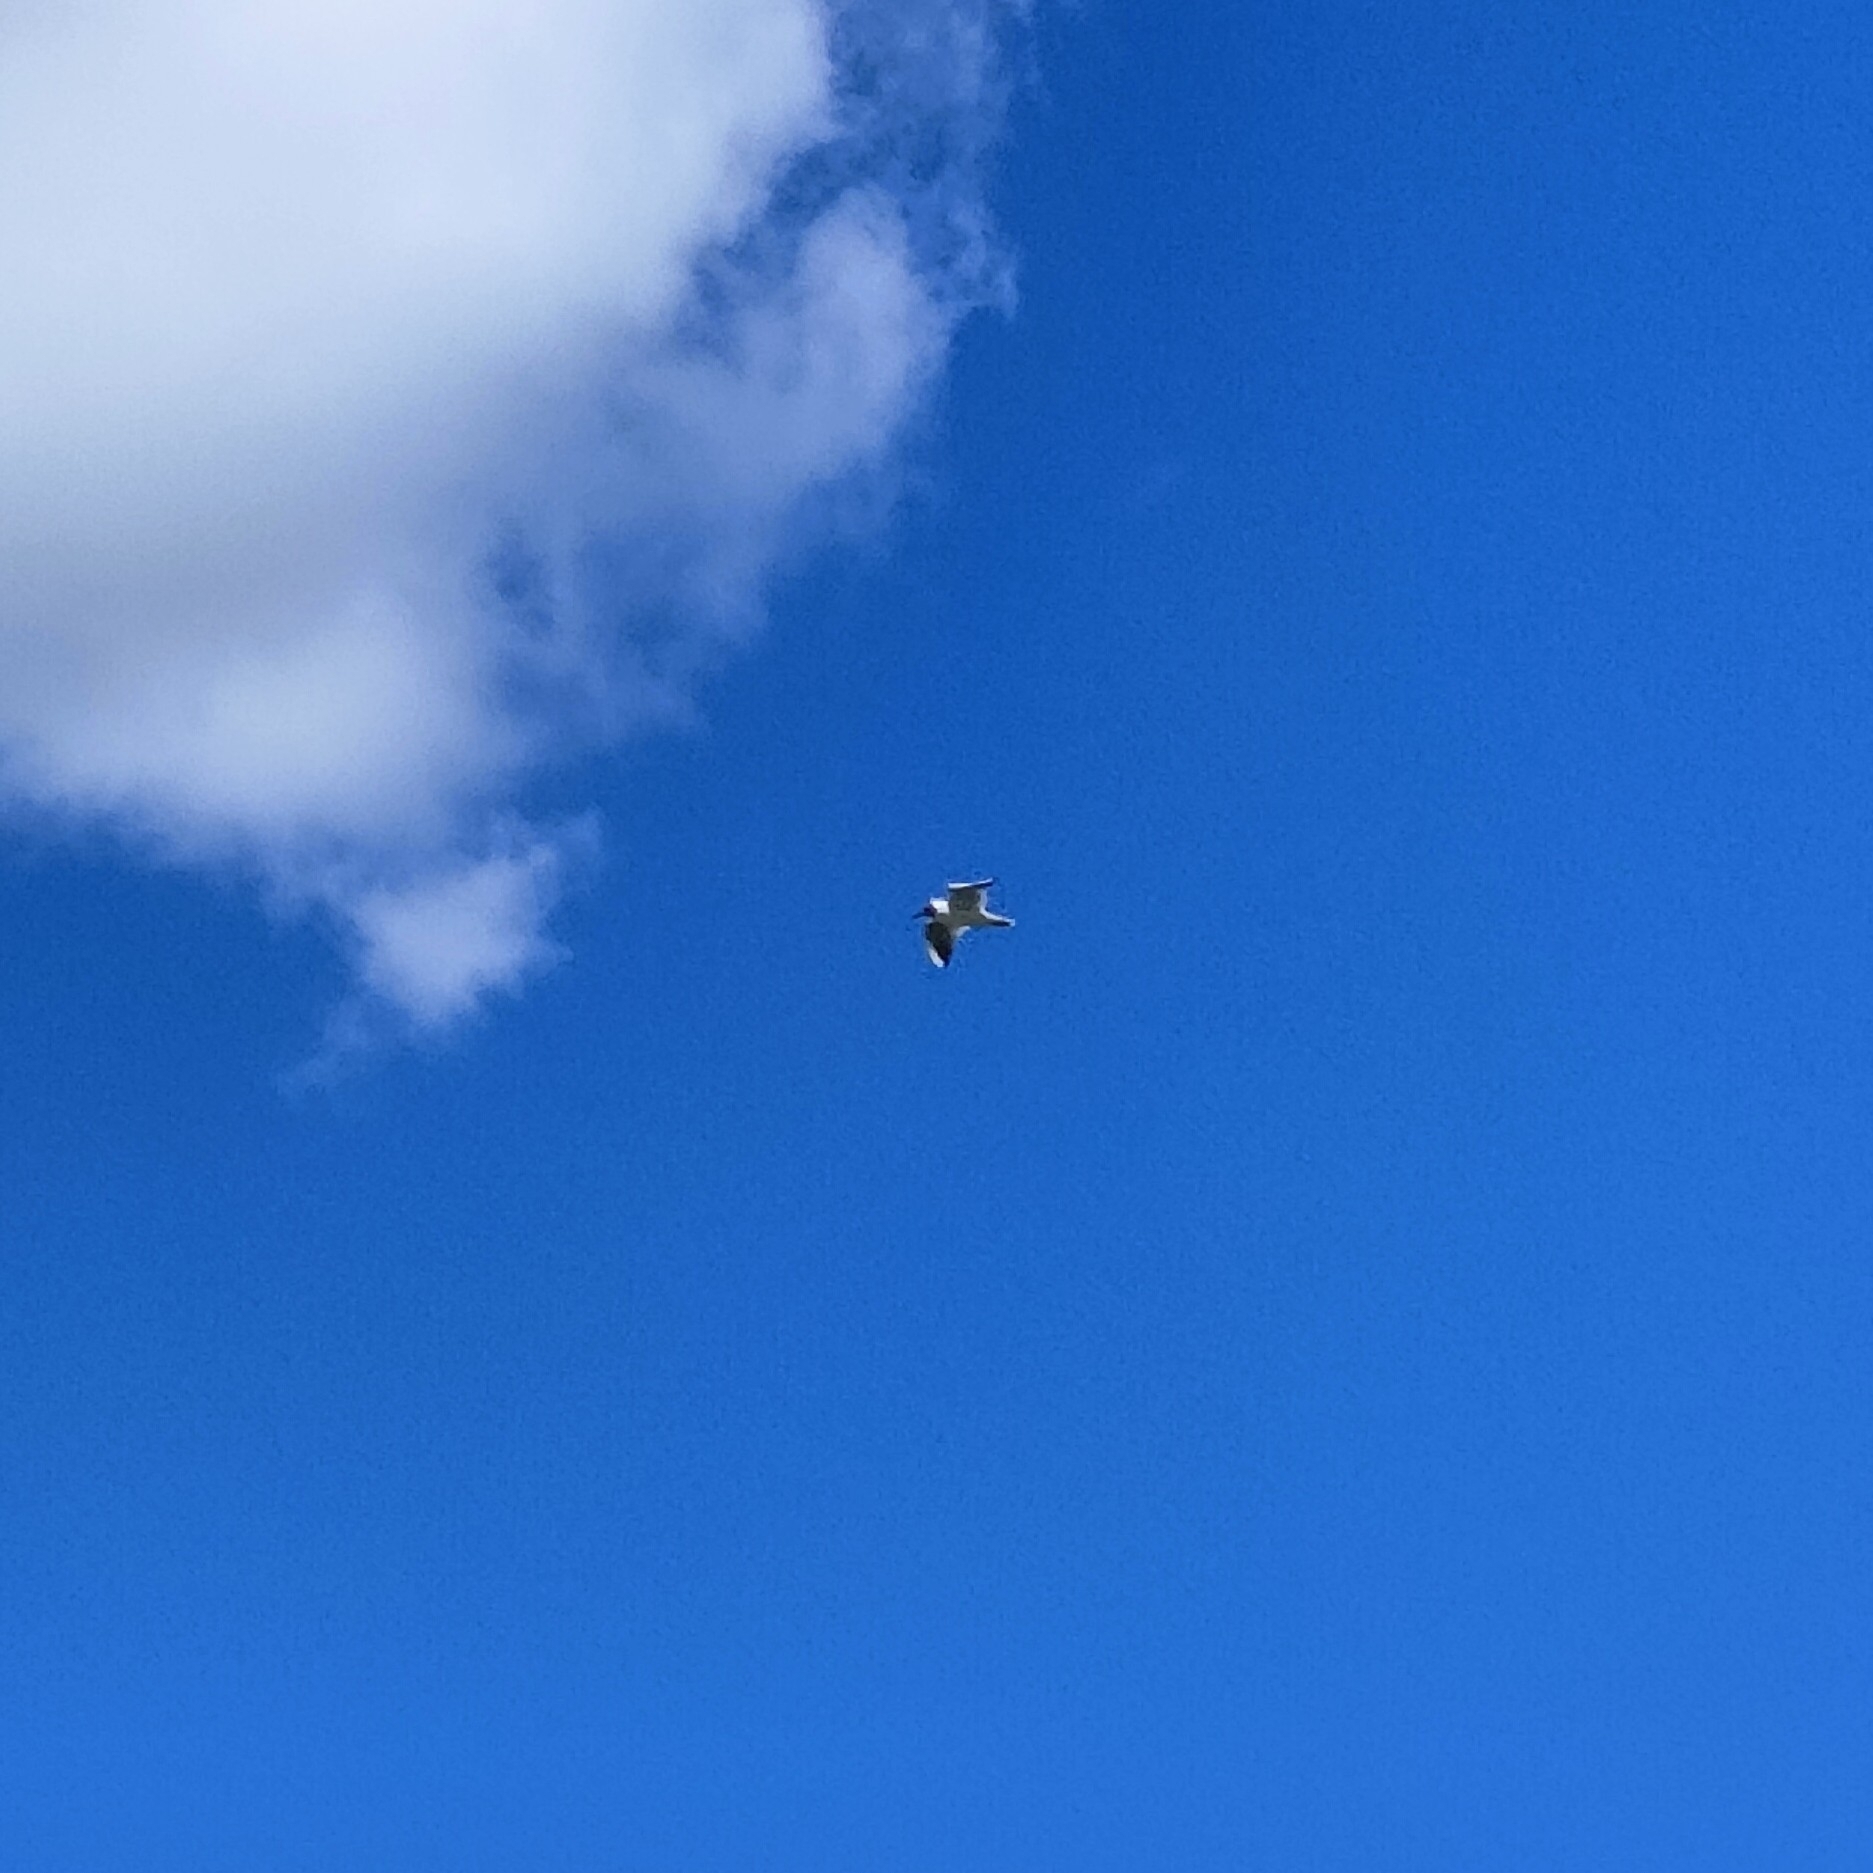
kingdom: Animalia
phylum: Chordata
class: Aves
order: Charadriiformes
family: Laridae
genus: Chroicocephalus
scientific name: Chroicocephalus ridibundus
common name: Black-headed gull
